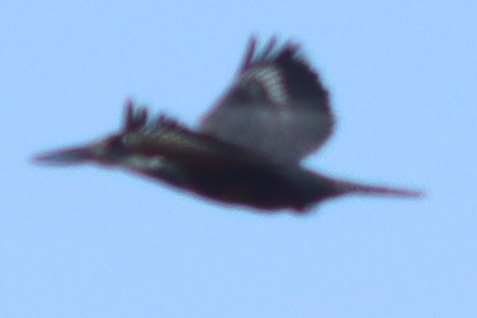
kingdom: Animalia
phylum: Chordata
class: Aves
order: Coraciiformes
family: Alcedinidae
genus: Megaceryle
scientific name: Megaceryle torquata
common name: Ringed kingfisher
